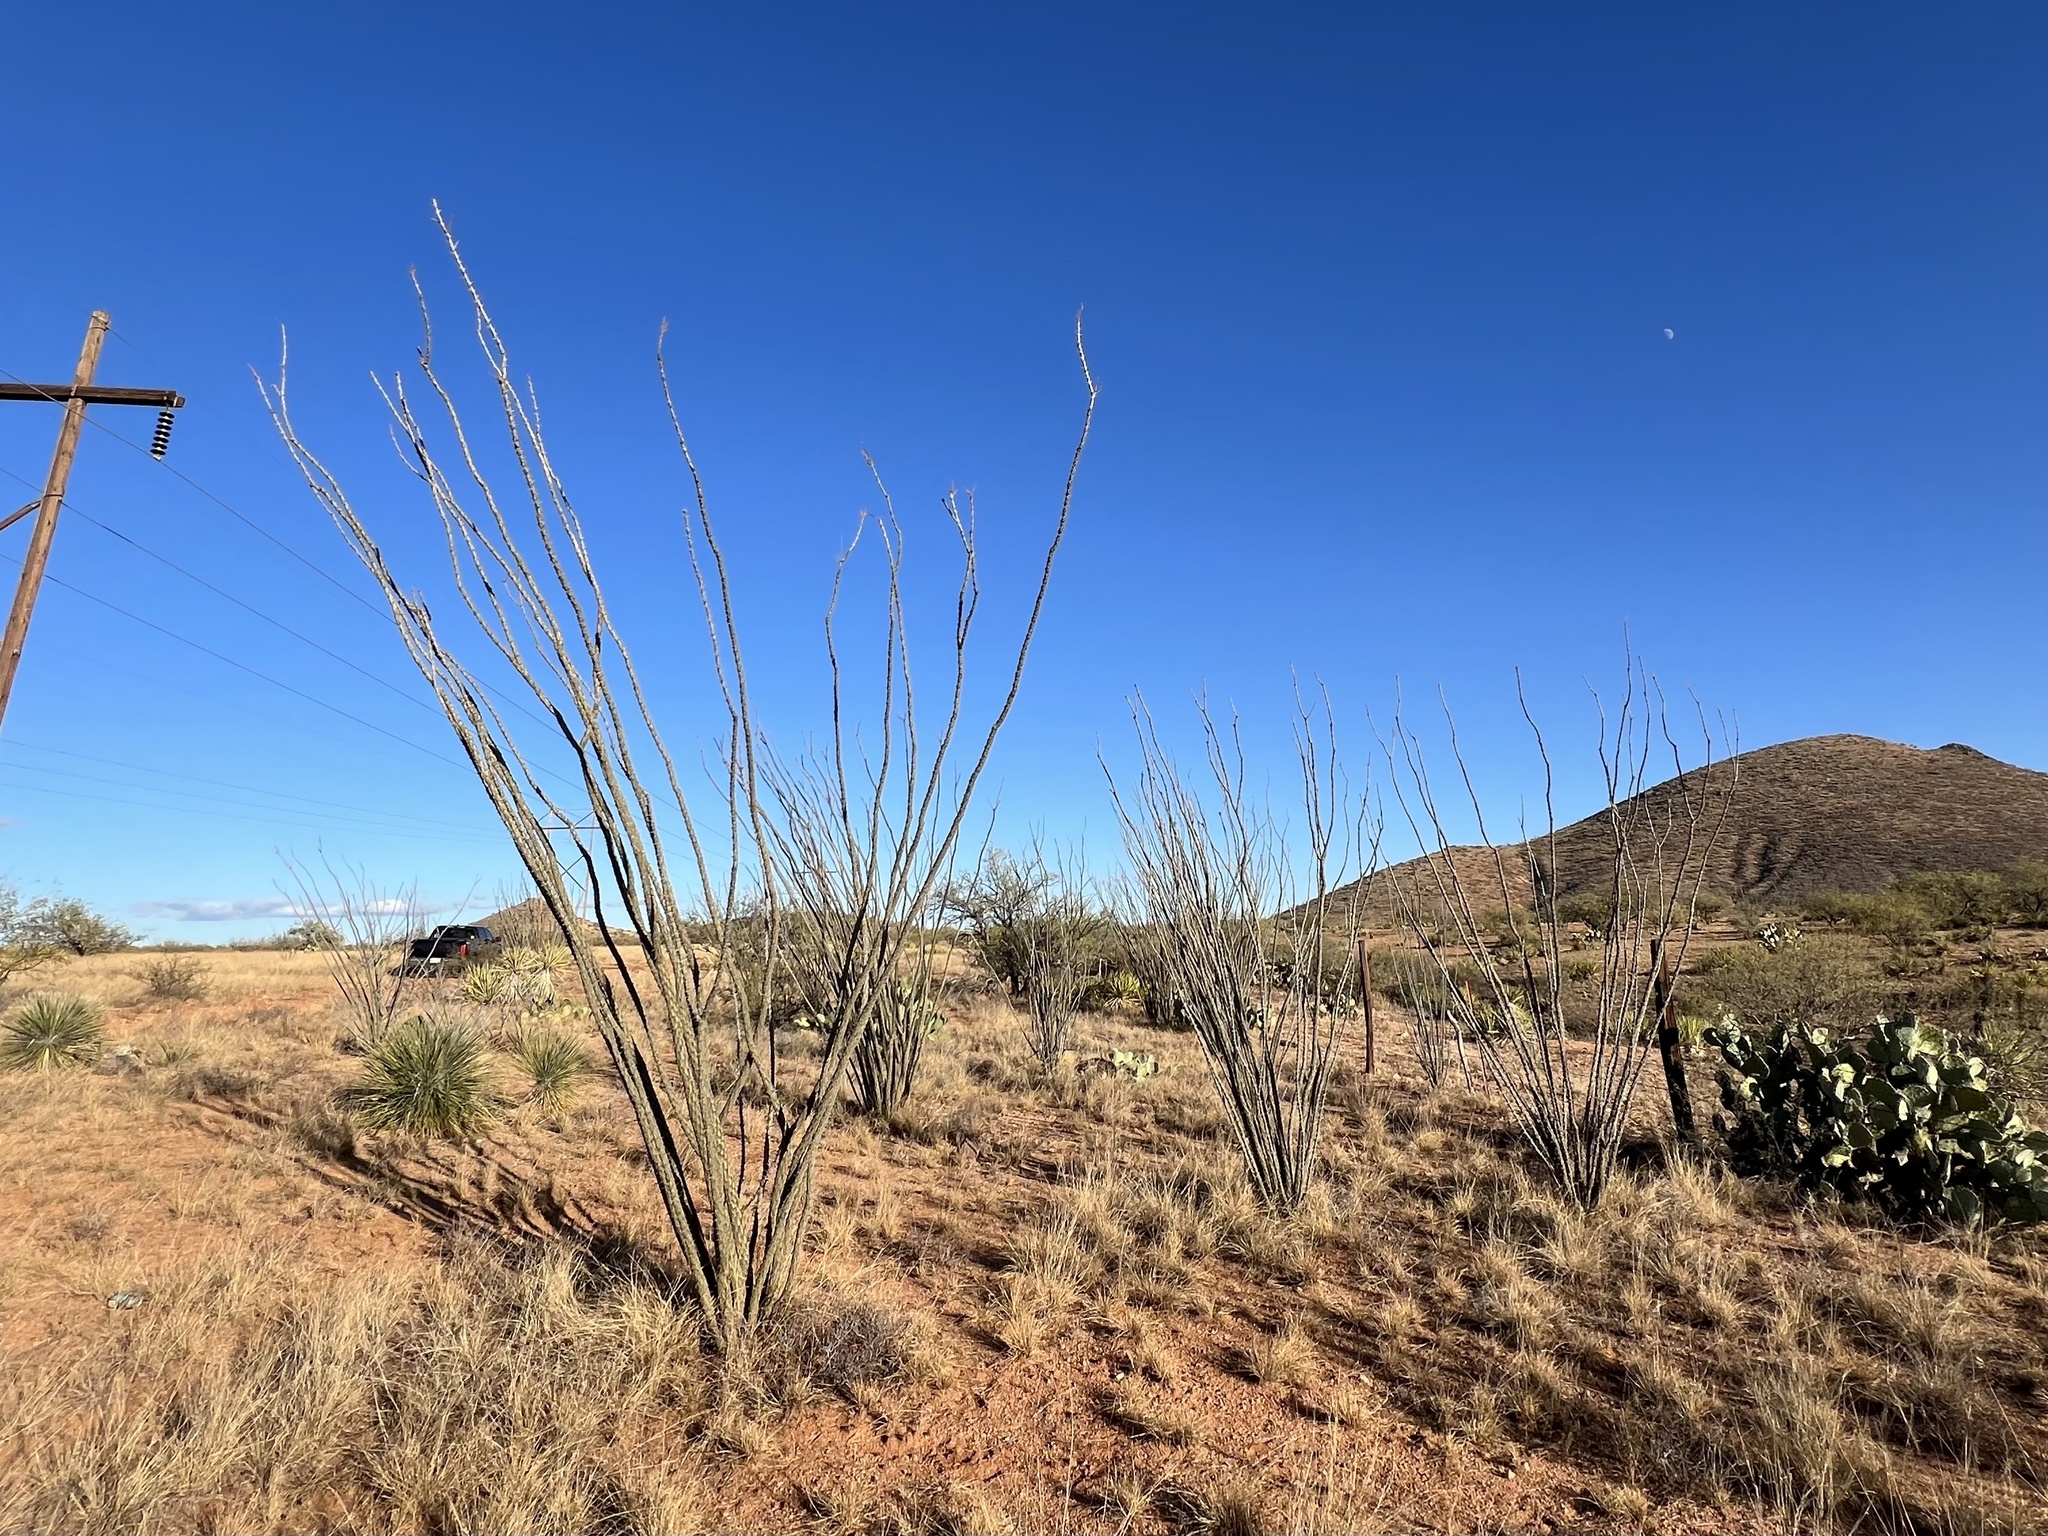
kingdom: Plantae
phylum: Tracheophyta
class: Magnoliopsida
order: Ericales
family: Fouquieriaceae
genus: Fouquieria
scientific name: Fouquieria splendens
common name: Vine-cactus
